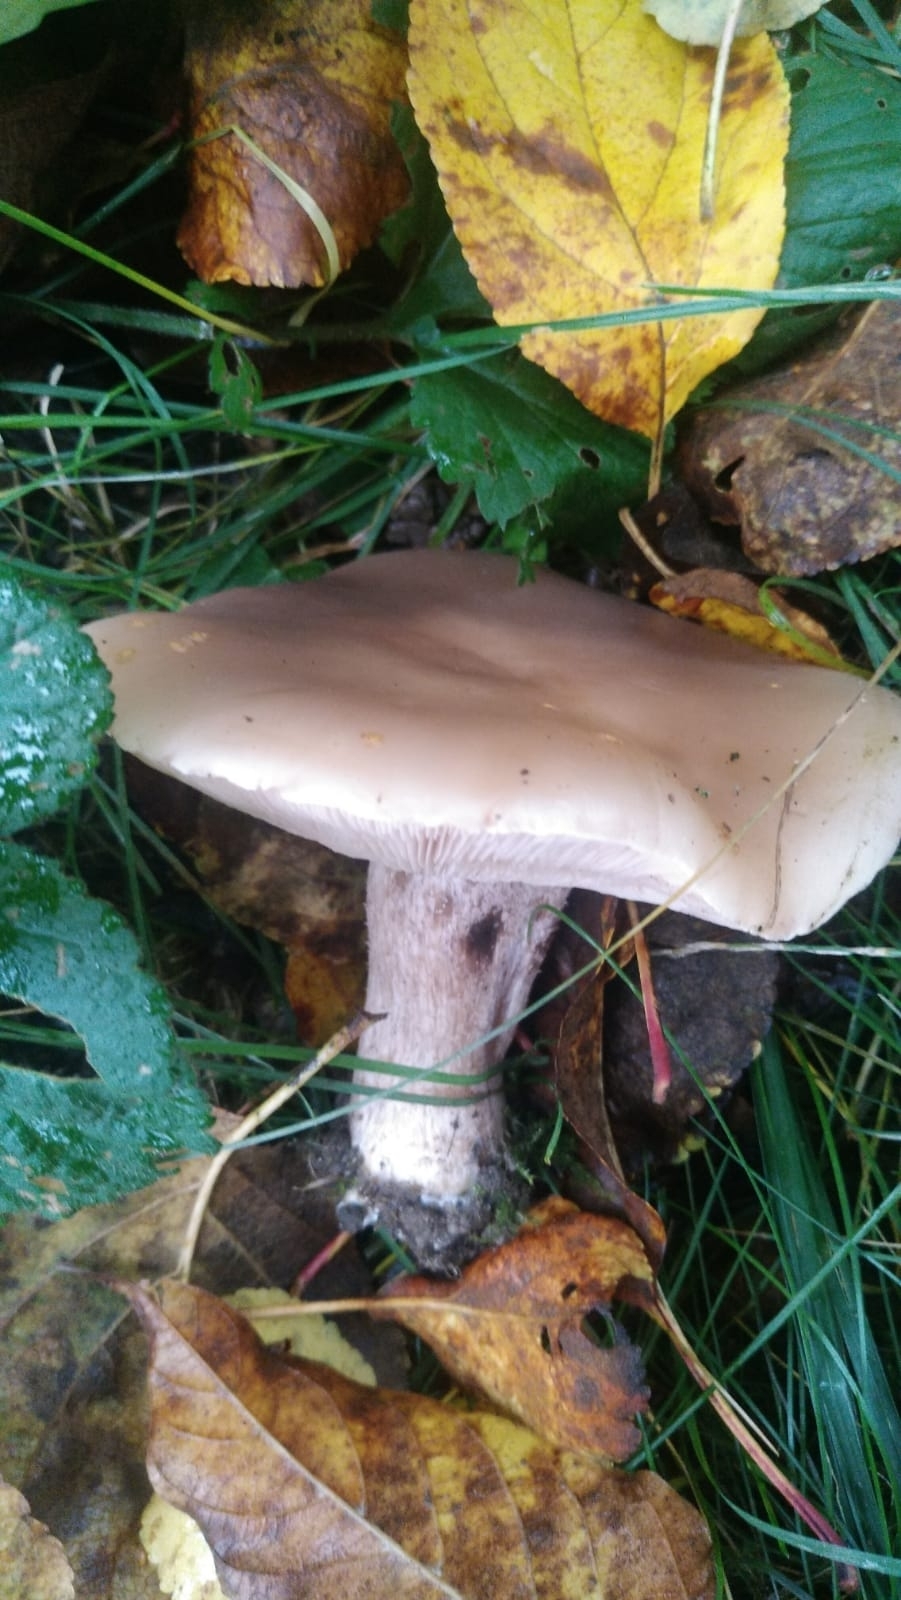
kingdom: Fungi
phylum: Basidiomycota
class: Agaricomycetes
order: Agaricales
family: Omphalotaceae
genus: Collybiopsis
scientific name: Collybiopsis peronata
